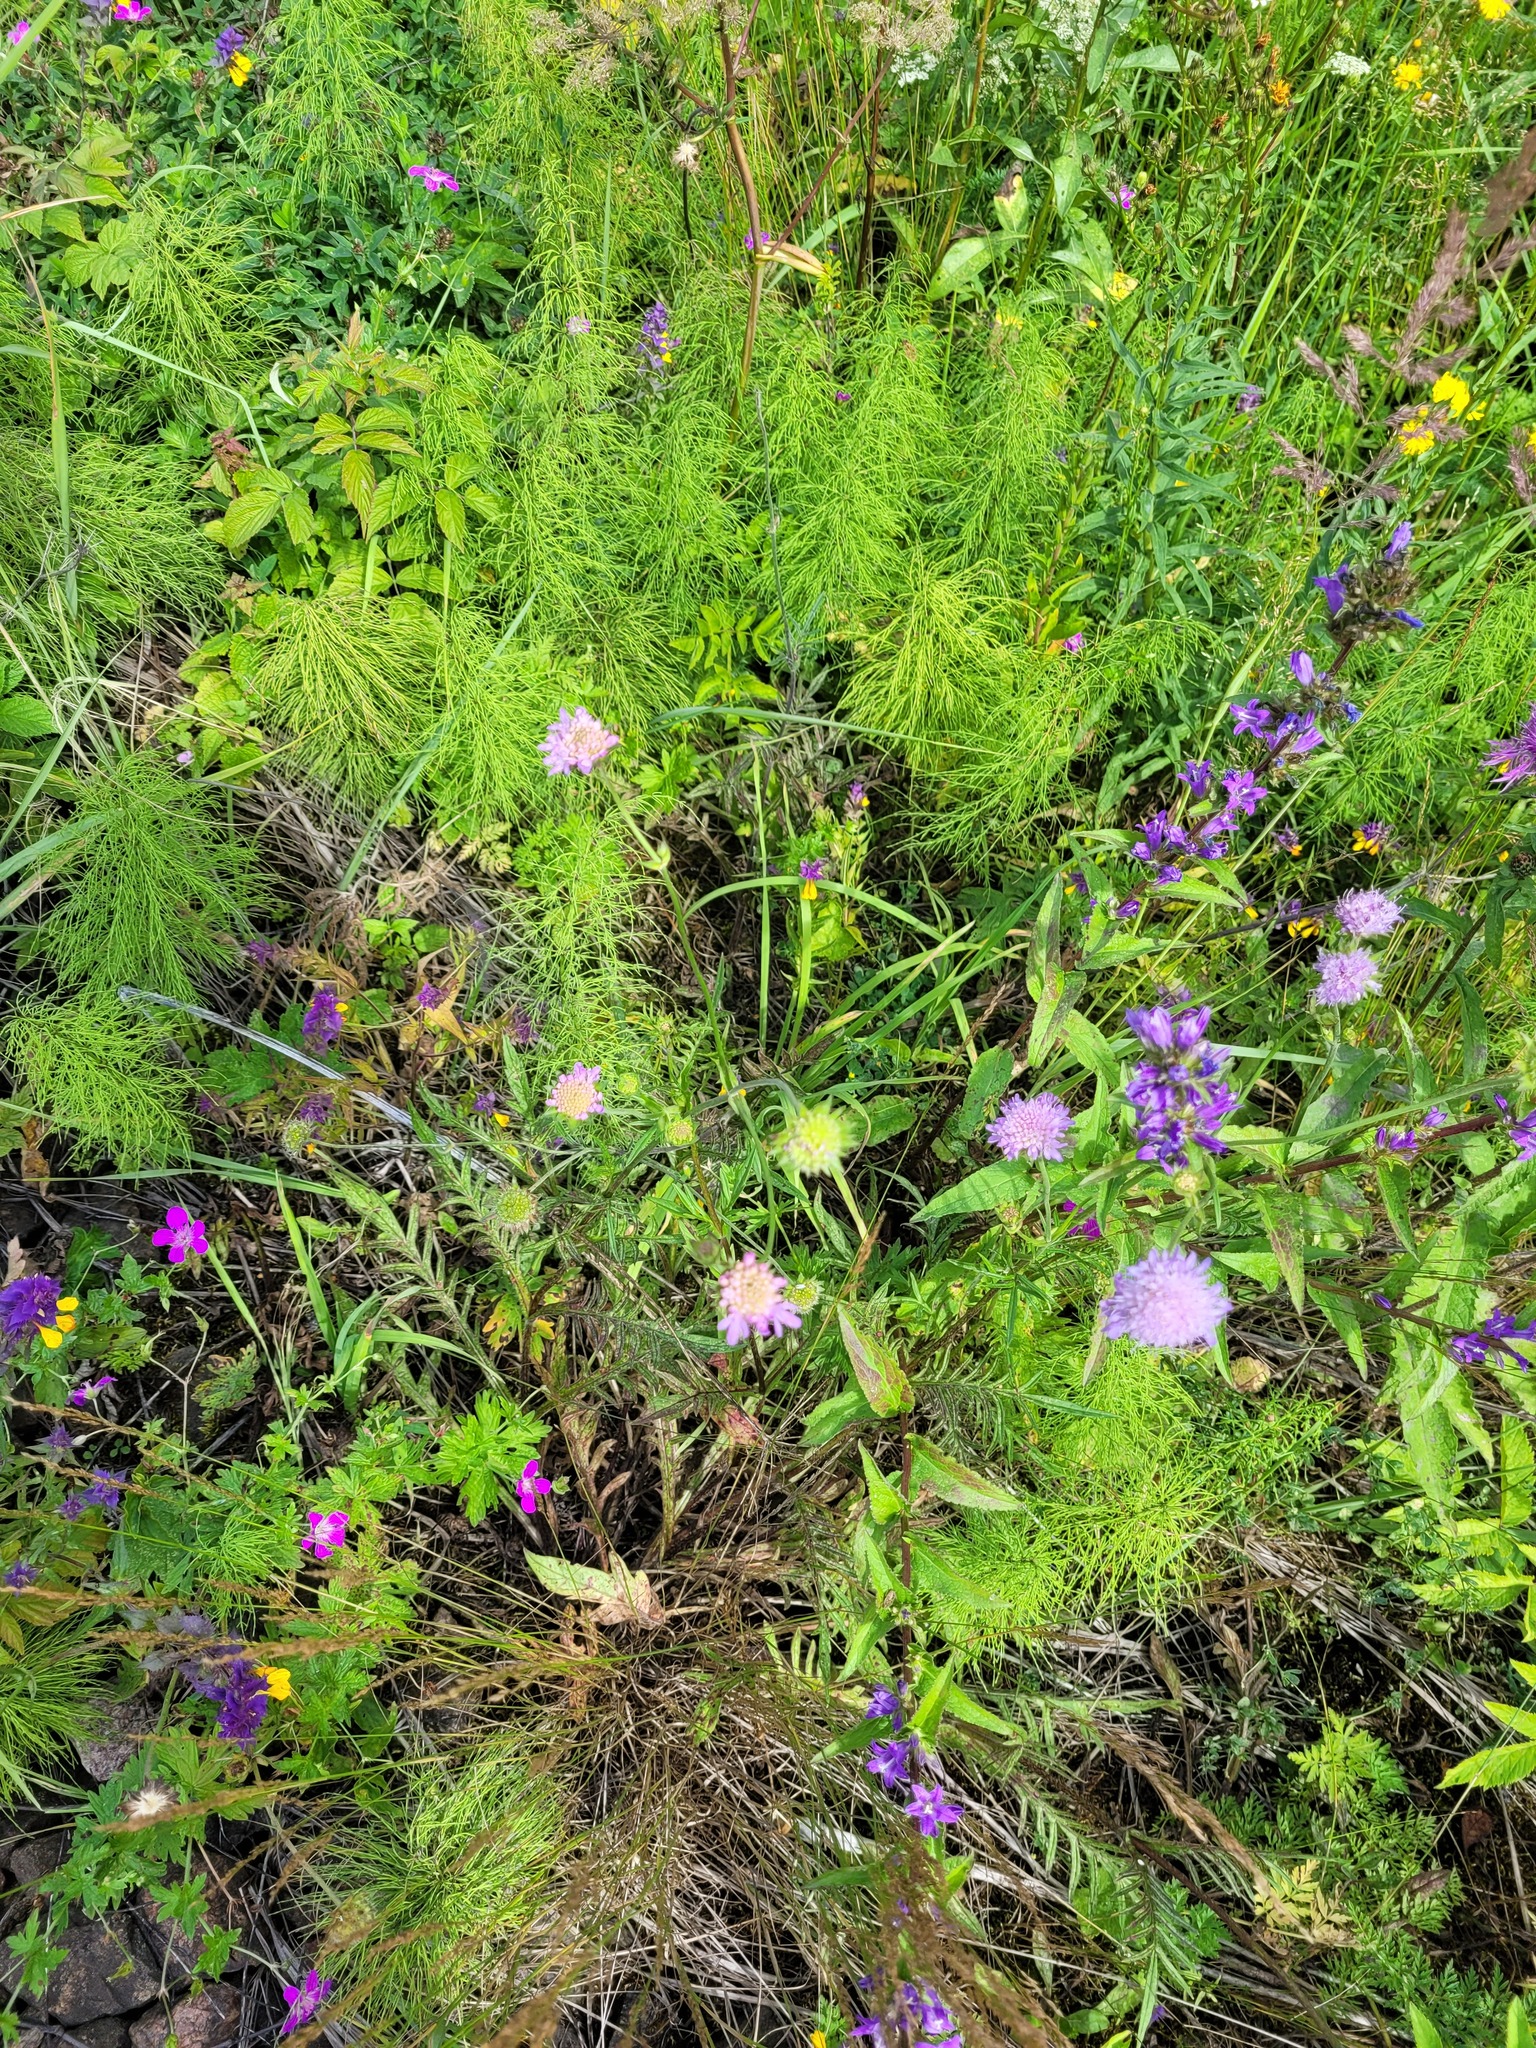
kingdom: Plantae
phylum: Tracheophyta
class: Magnoliopsida
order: Dipsacales
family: Caprifoliaceae
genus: Knautia
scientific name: Knautia arvensis
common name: Field scabiosa
